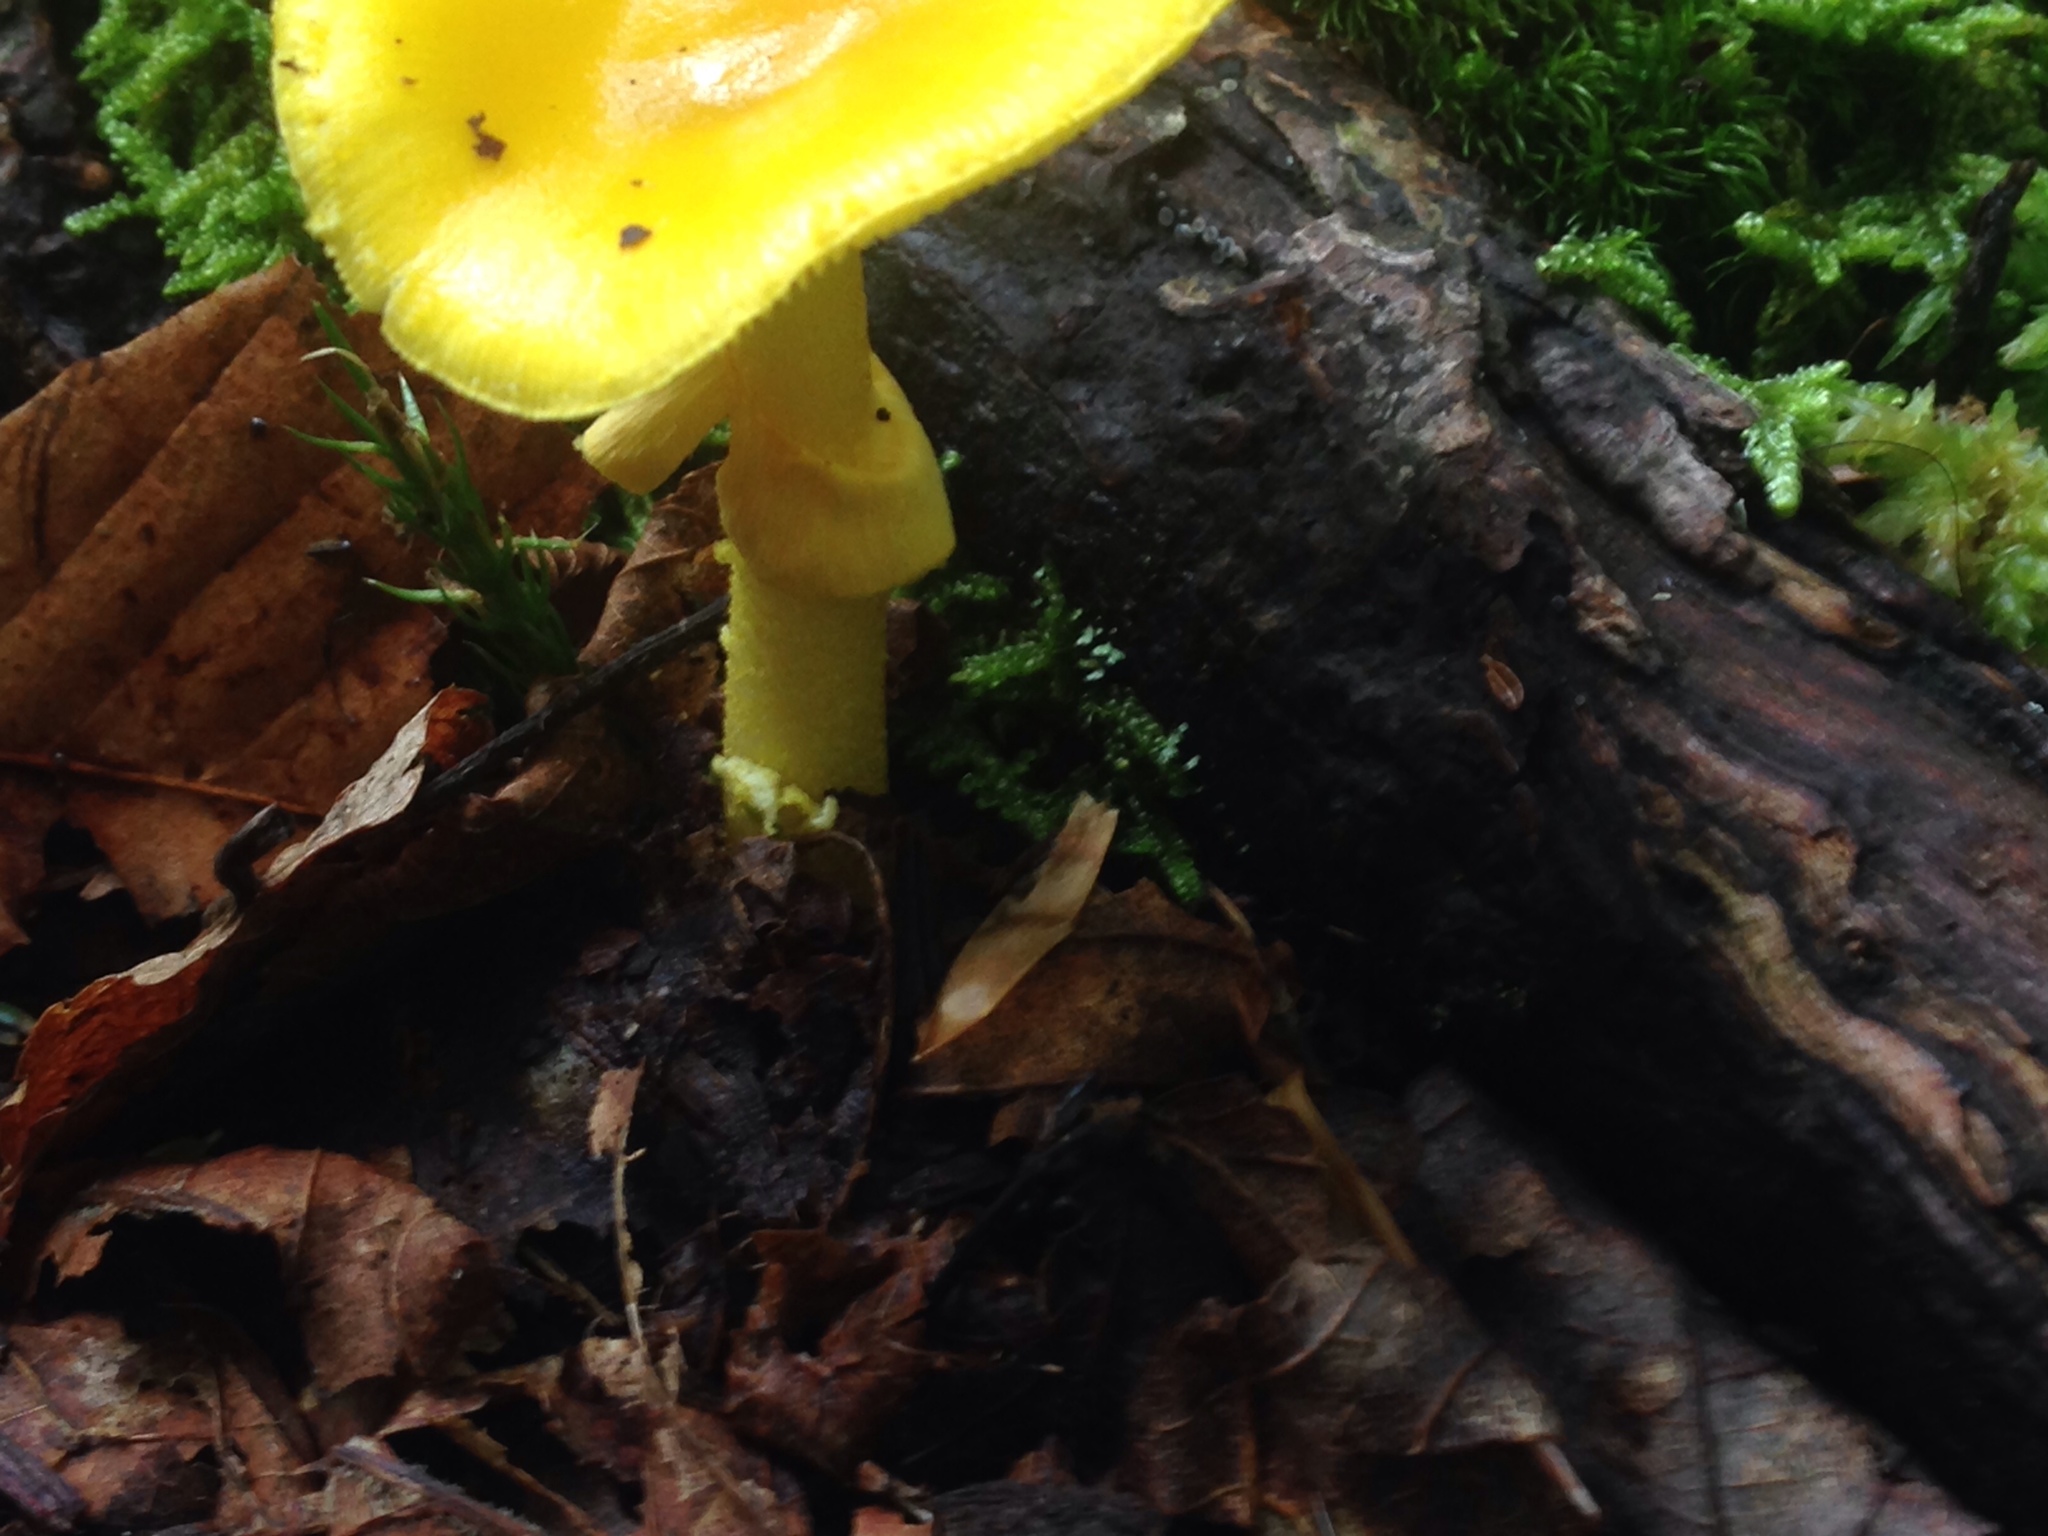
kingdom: Fungi
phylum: Basidiomycota
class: Agaricomycetes
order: Agaricales
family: Amanitaceae
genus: Amanita
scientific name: Amanita flavoconia
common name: Yellow patches
